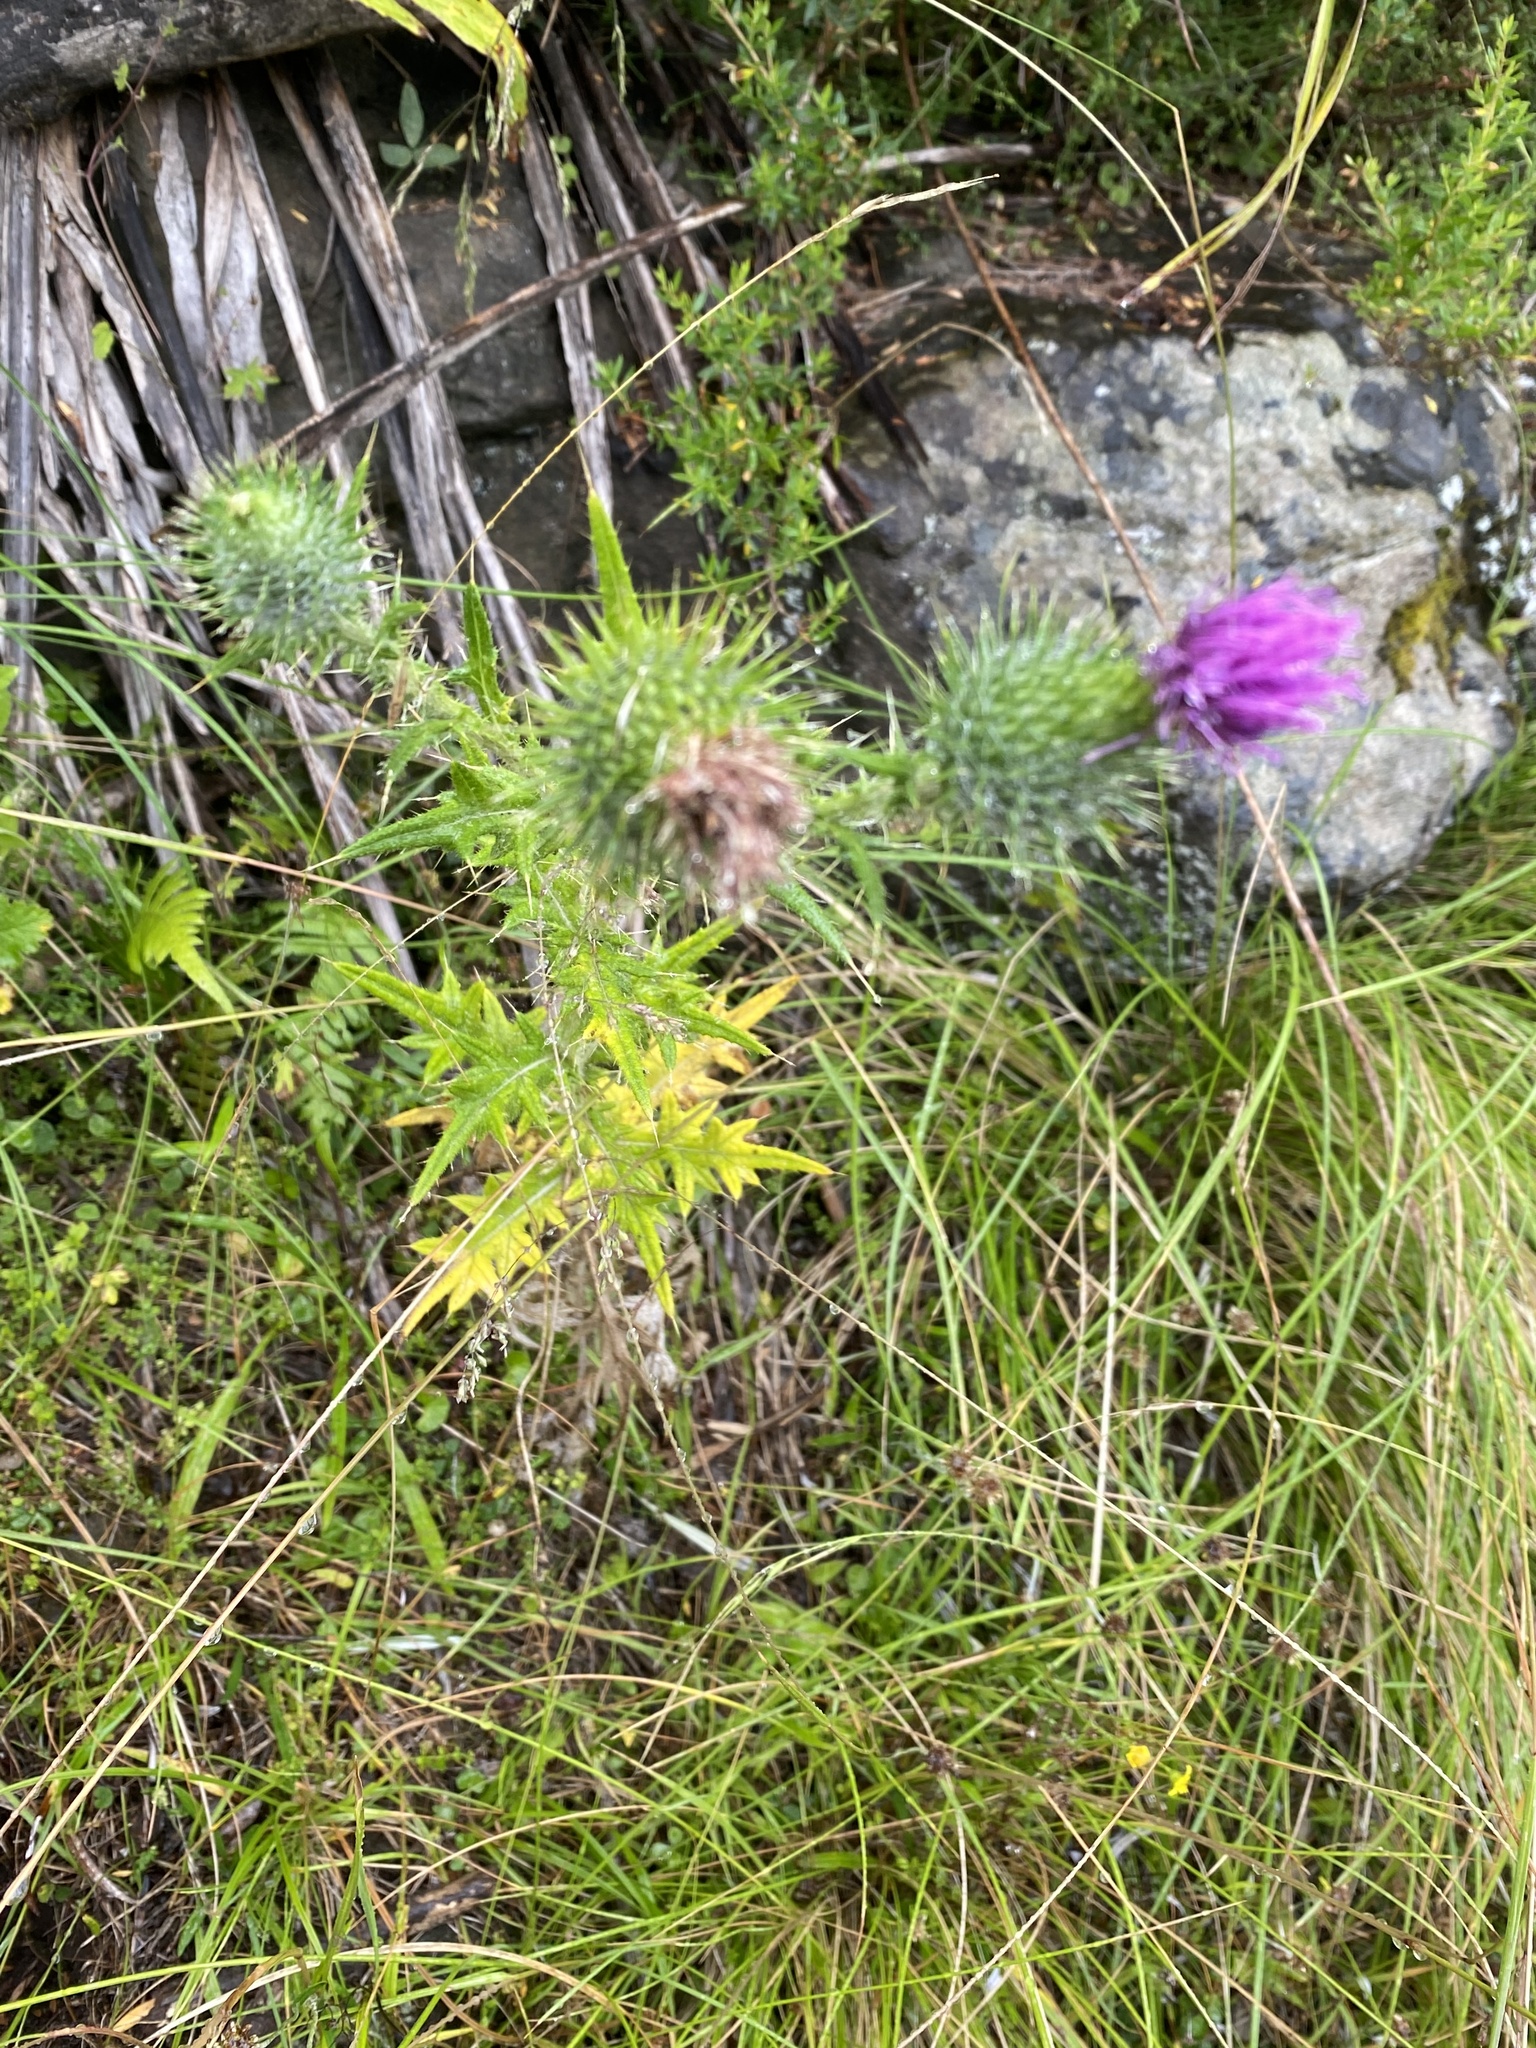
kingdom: Plantae
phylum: Tracheophyta
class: Magnoliopsida
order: Asterales
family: Asteraceae
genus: Cirsium
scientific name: Cirsium vulgare
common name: Bull thistle
